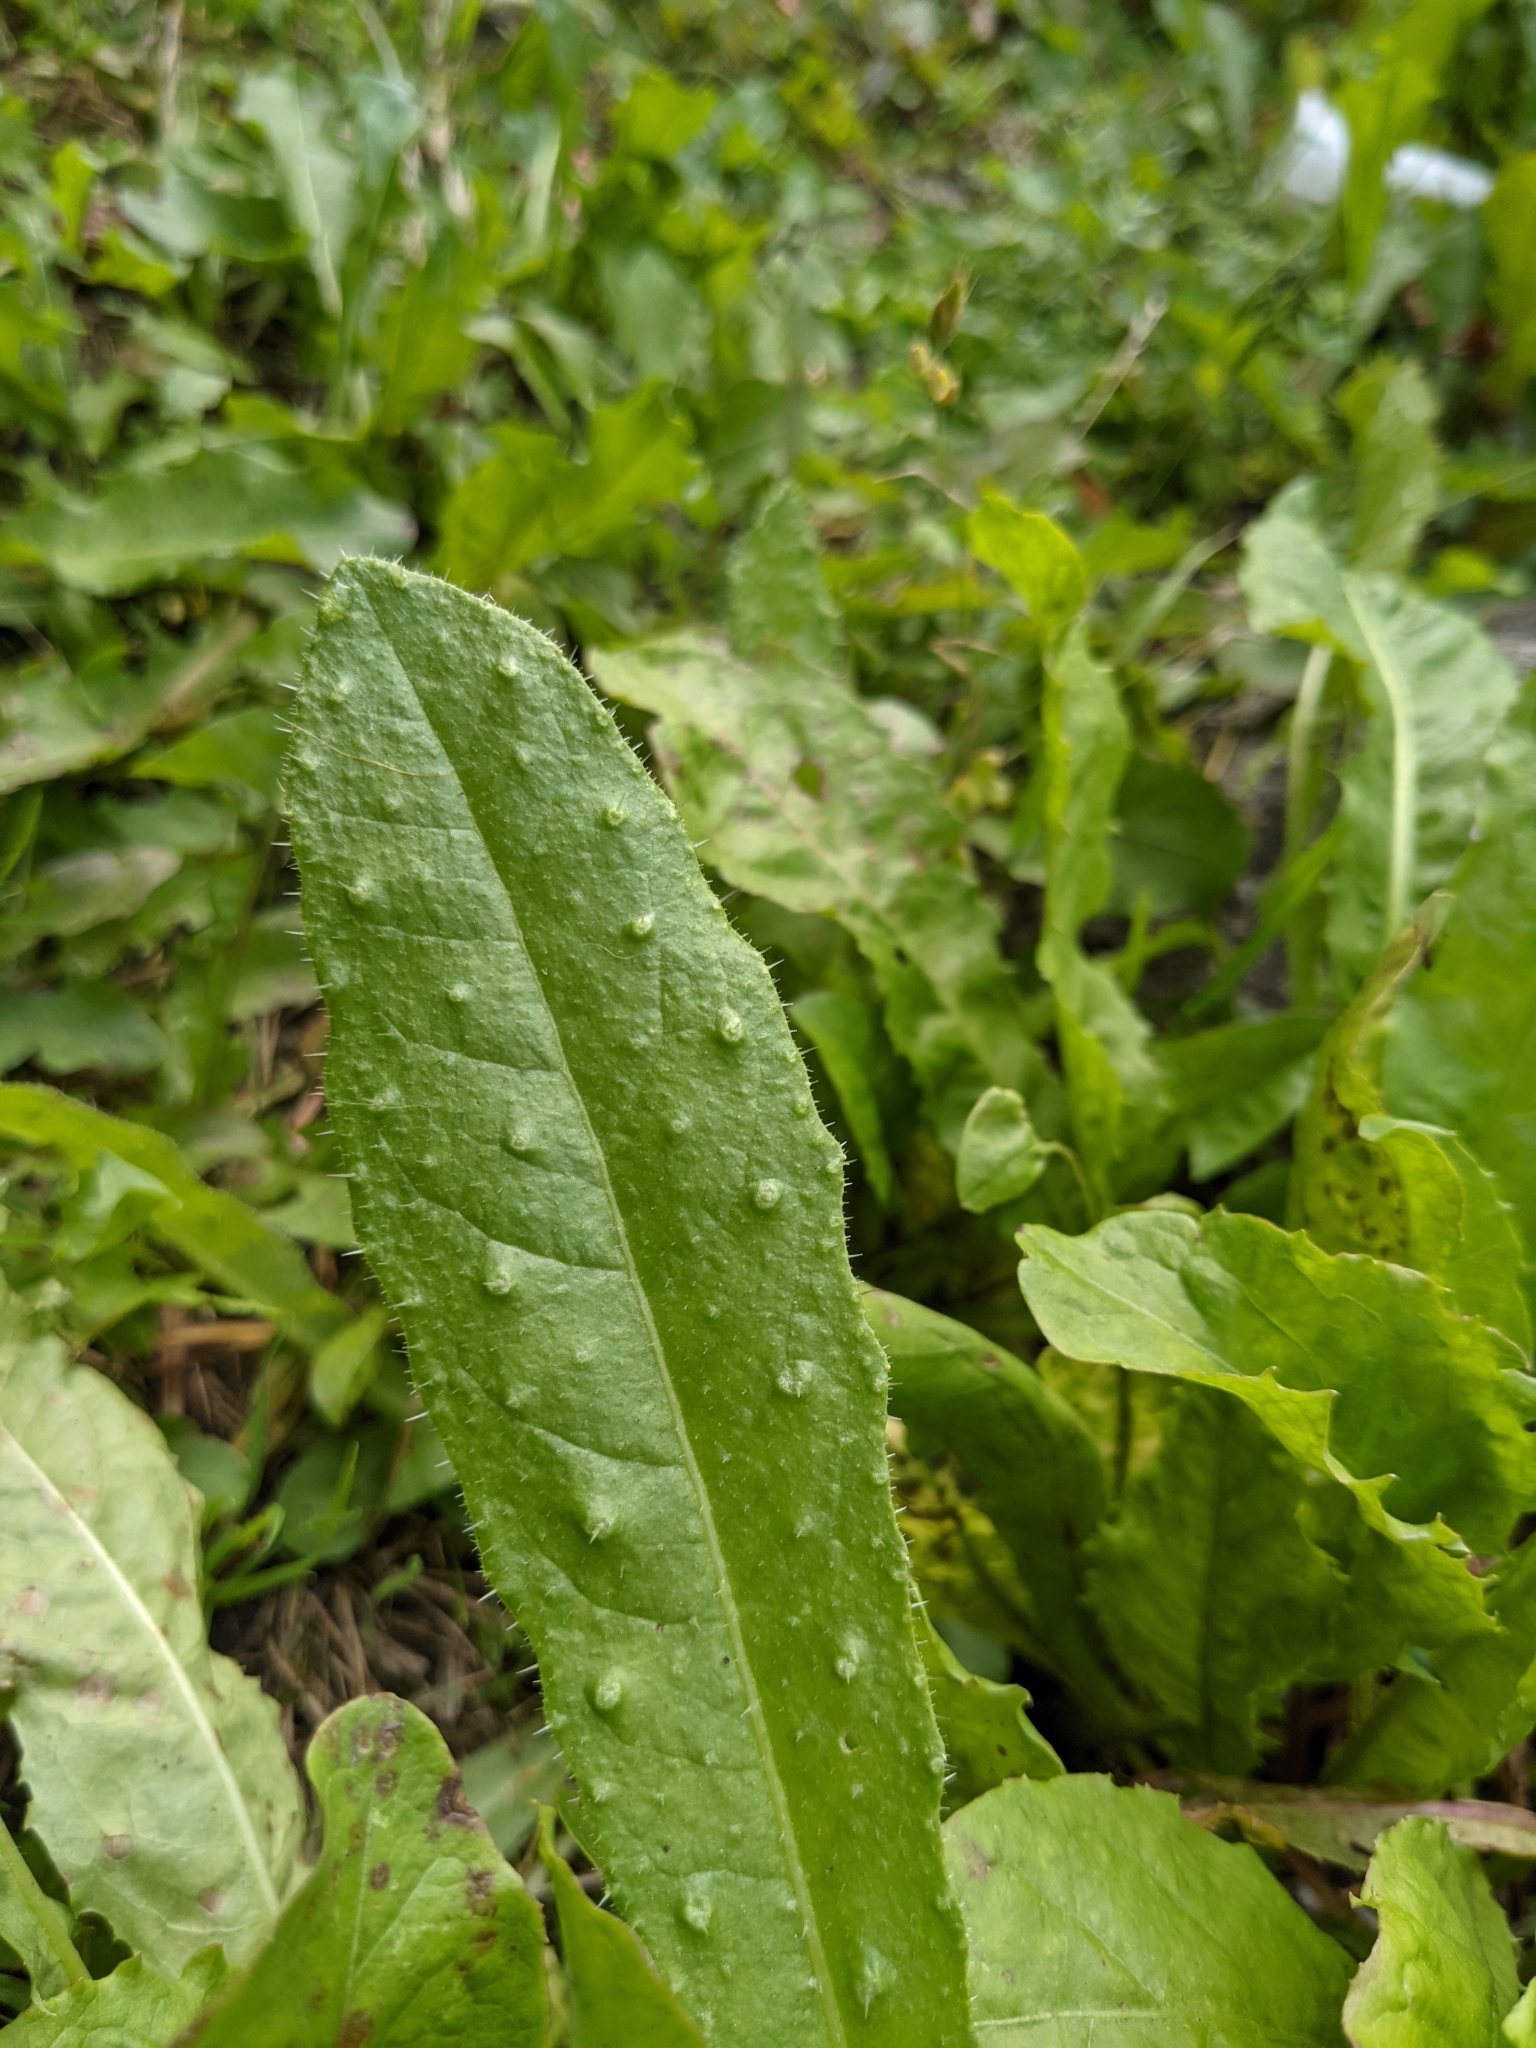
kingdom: Plantae
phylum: Tracheophyta
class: Magnoliopsida
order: Asterales
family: Asteraceae
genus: Helminthotheca
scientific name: Helminthotheca echioides
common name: Ox-tongue
